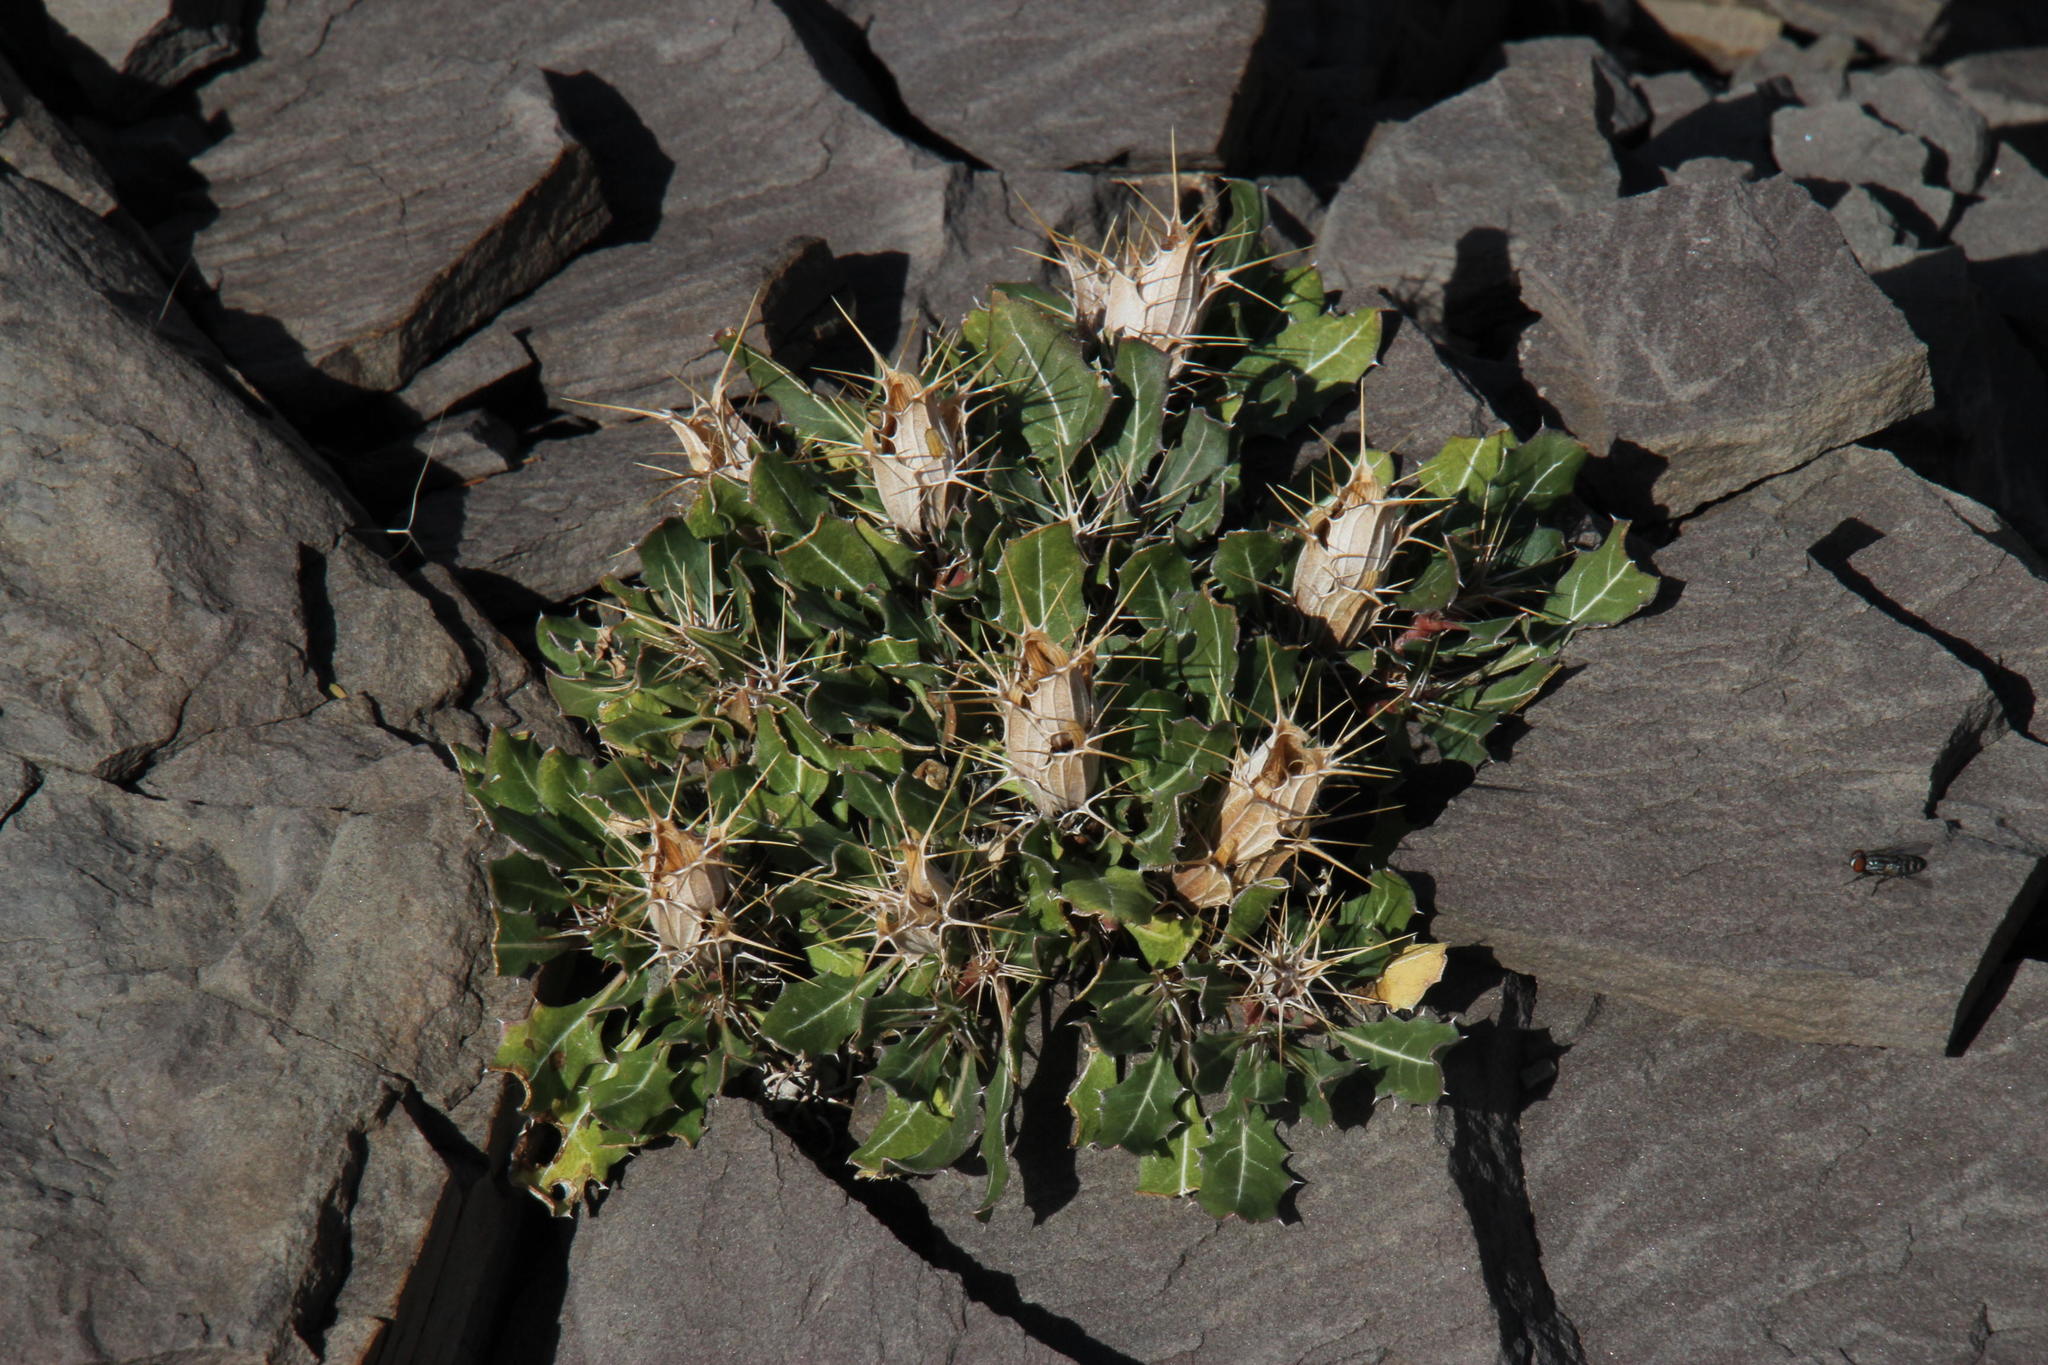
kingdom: Plantae
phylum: Tracheophyta
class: Magnoliopsida
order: Lamiales
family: Acanthaceae
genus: Blepharis
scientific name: Blepharis mitrata
